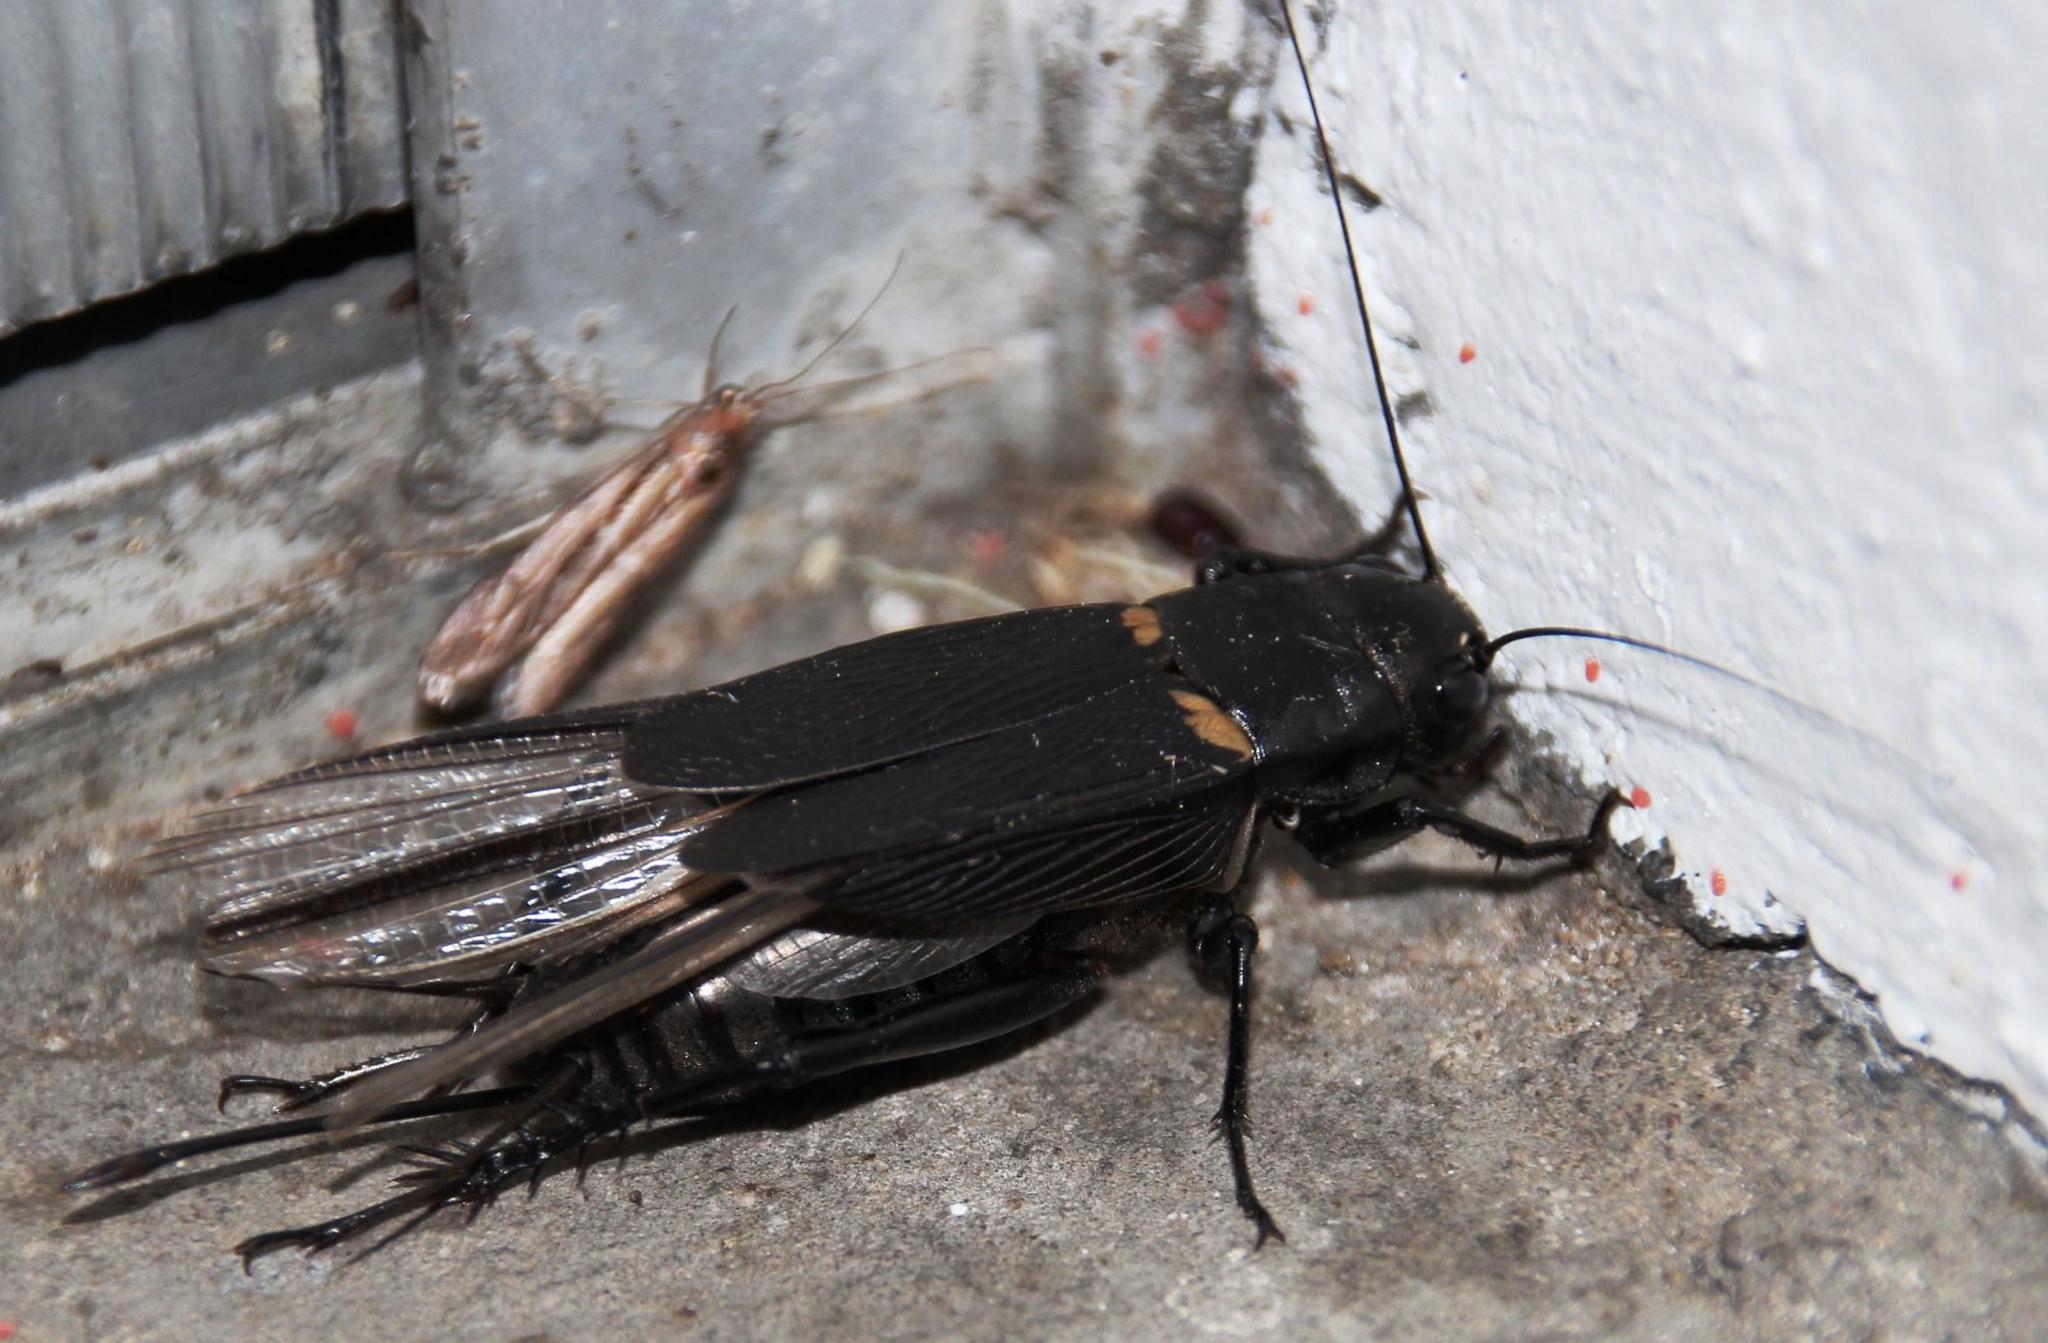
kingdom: Animalia
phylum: Arthropoda
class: Insecta
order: Orthoptera
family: Gryllidae
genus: Gryllus
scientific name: Gryllus bimaculatus
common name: Two-spotted cricket
